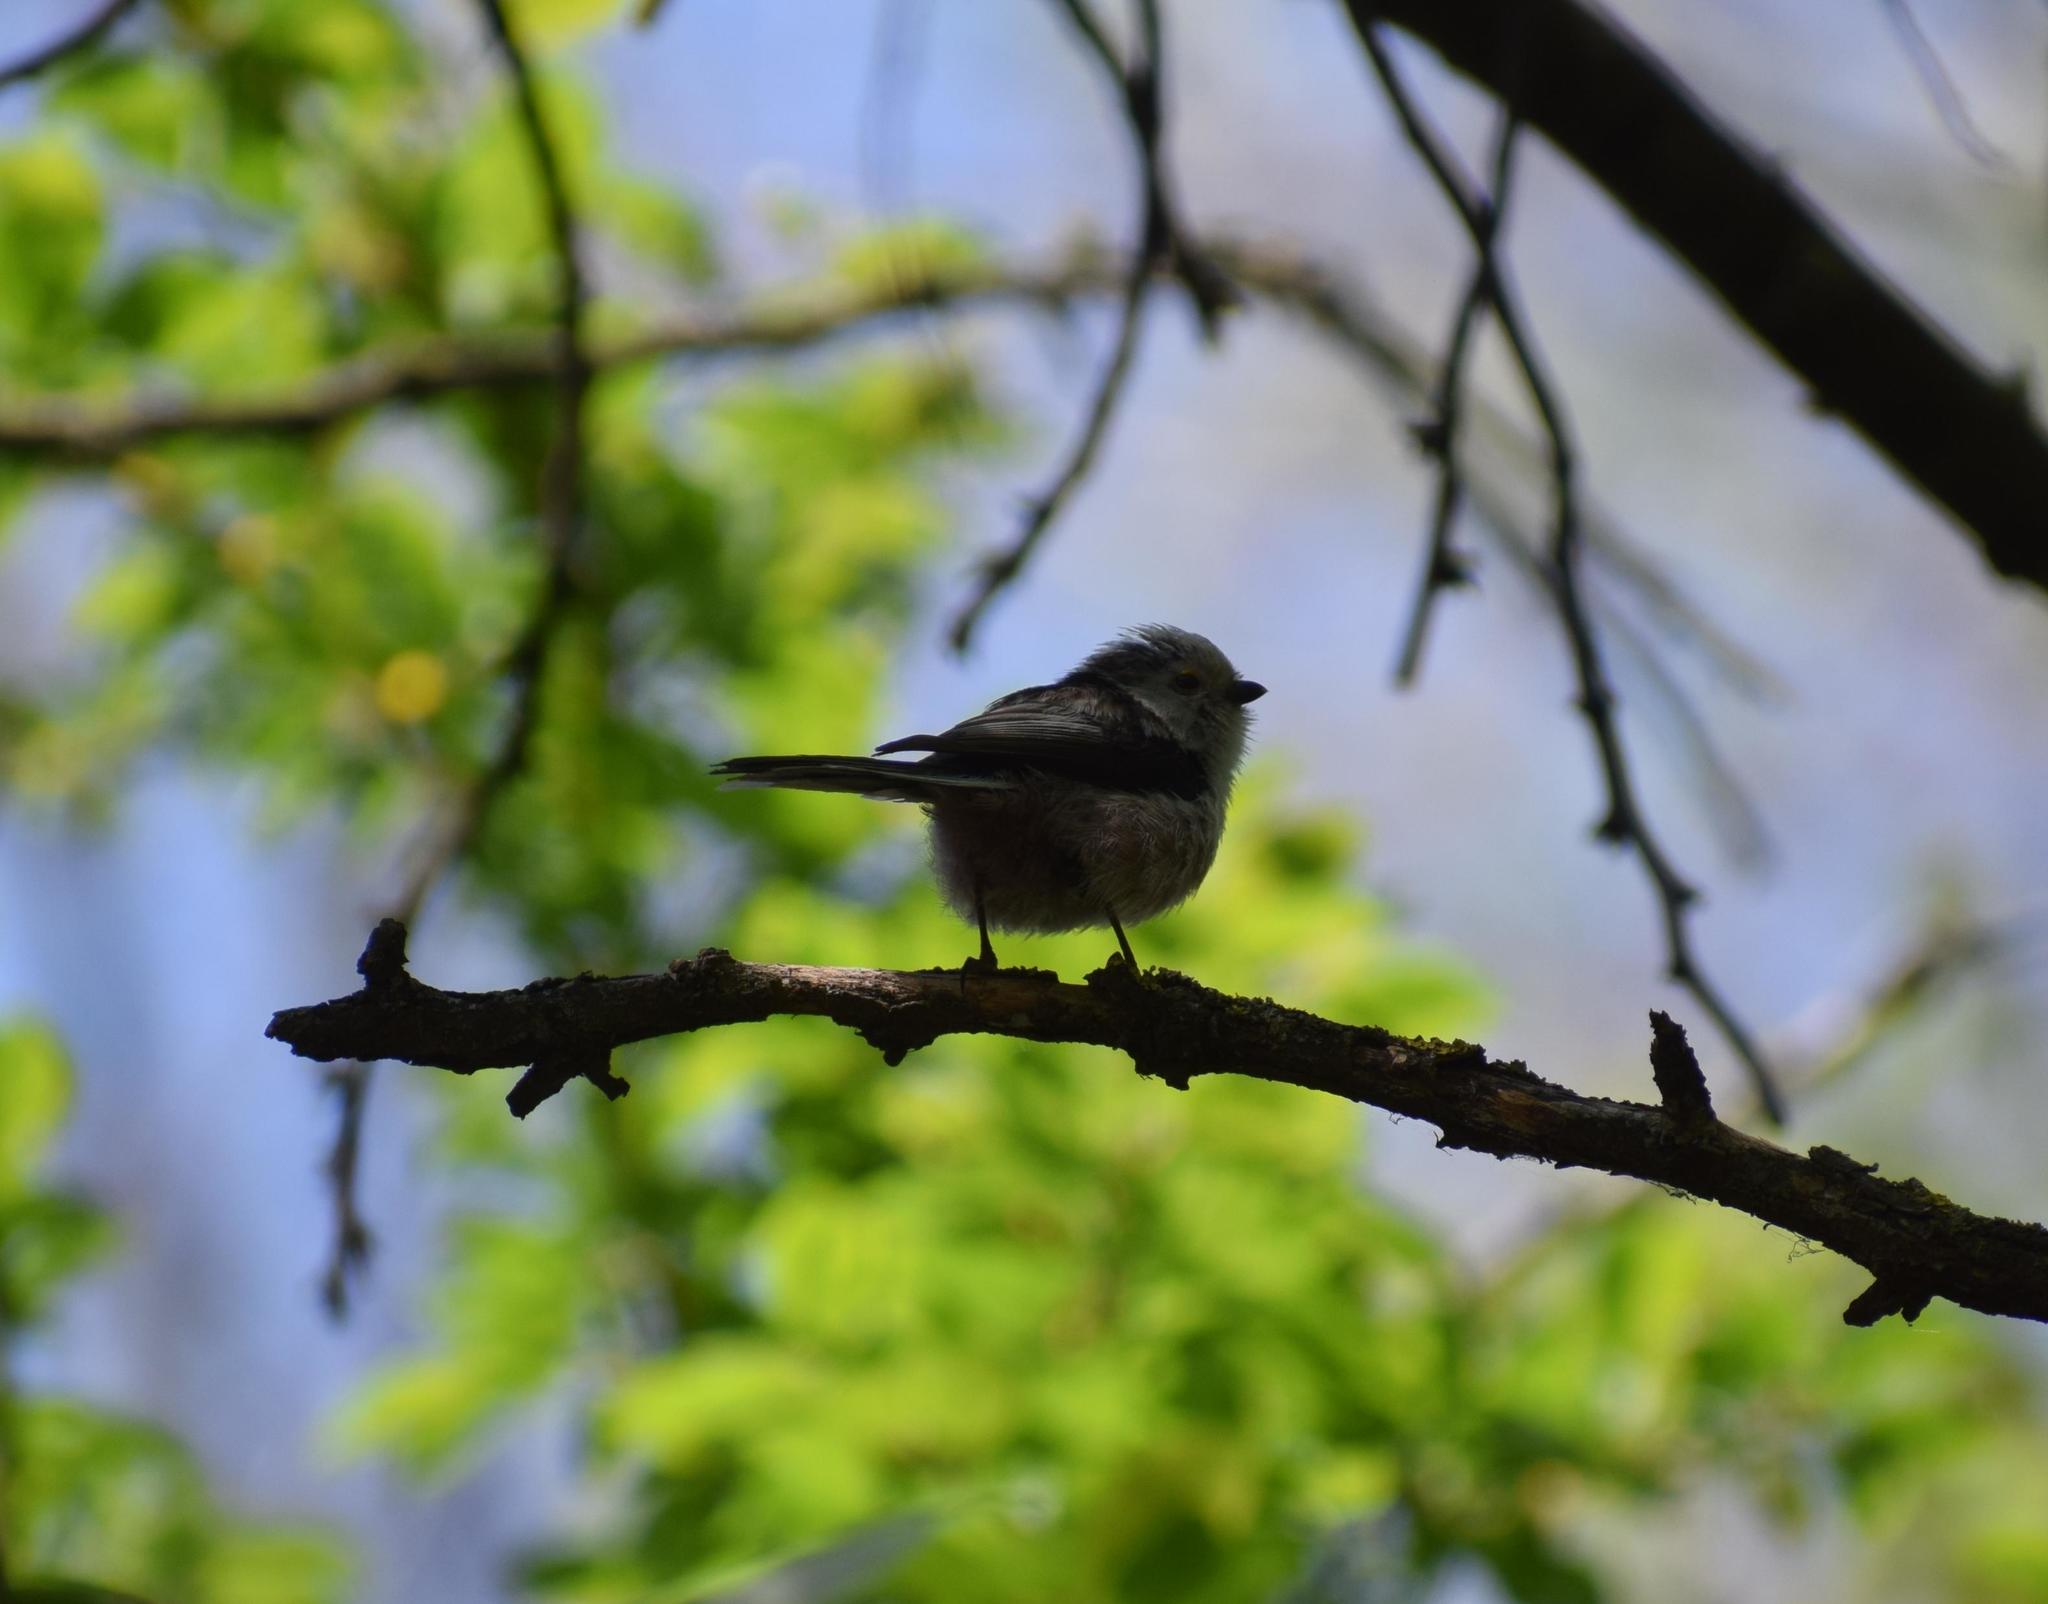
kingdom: Animalia
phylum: Chordata
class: Aves
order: Passeriformes
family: Aegithalidae
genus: Aegithalos
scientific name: Aegithalos caudatus
